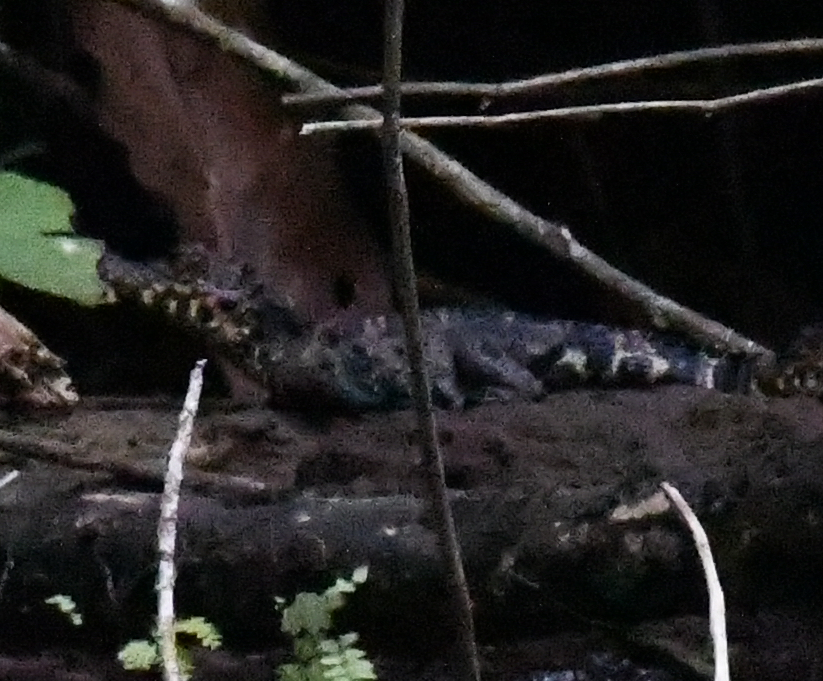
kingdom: Animalia
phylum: Chordata
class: Crocodylia
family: Crocodylidae
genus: Osteolaemus
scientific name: Osteolaemus tetraspis
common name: West african dwarf crocodile
